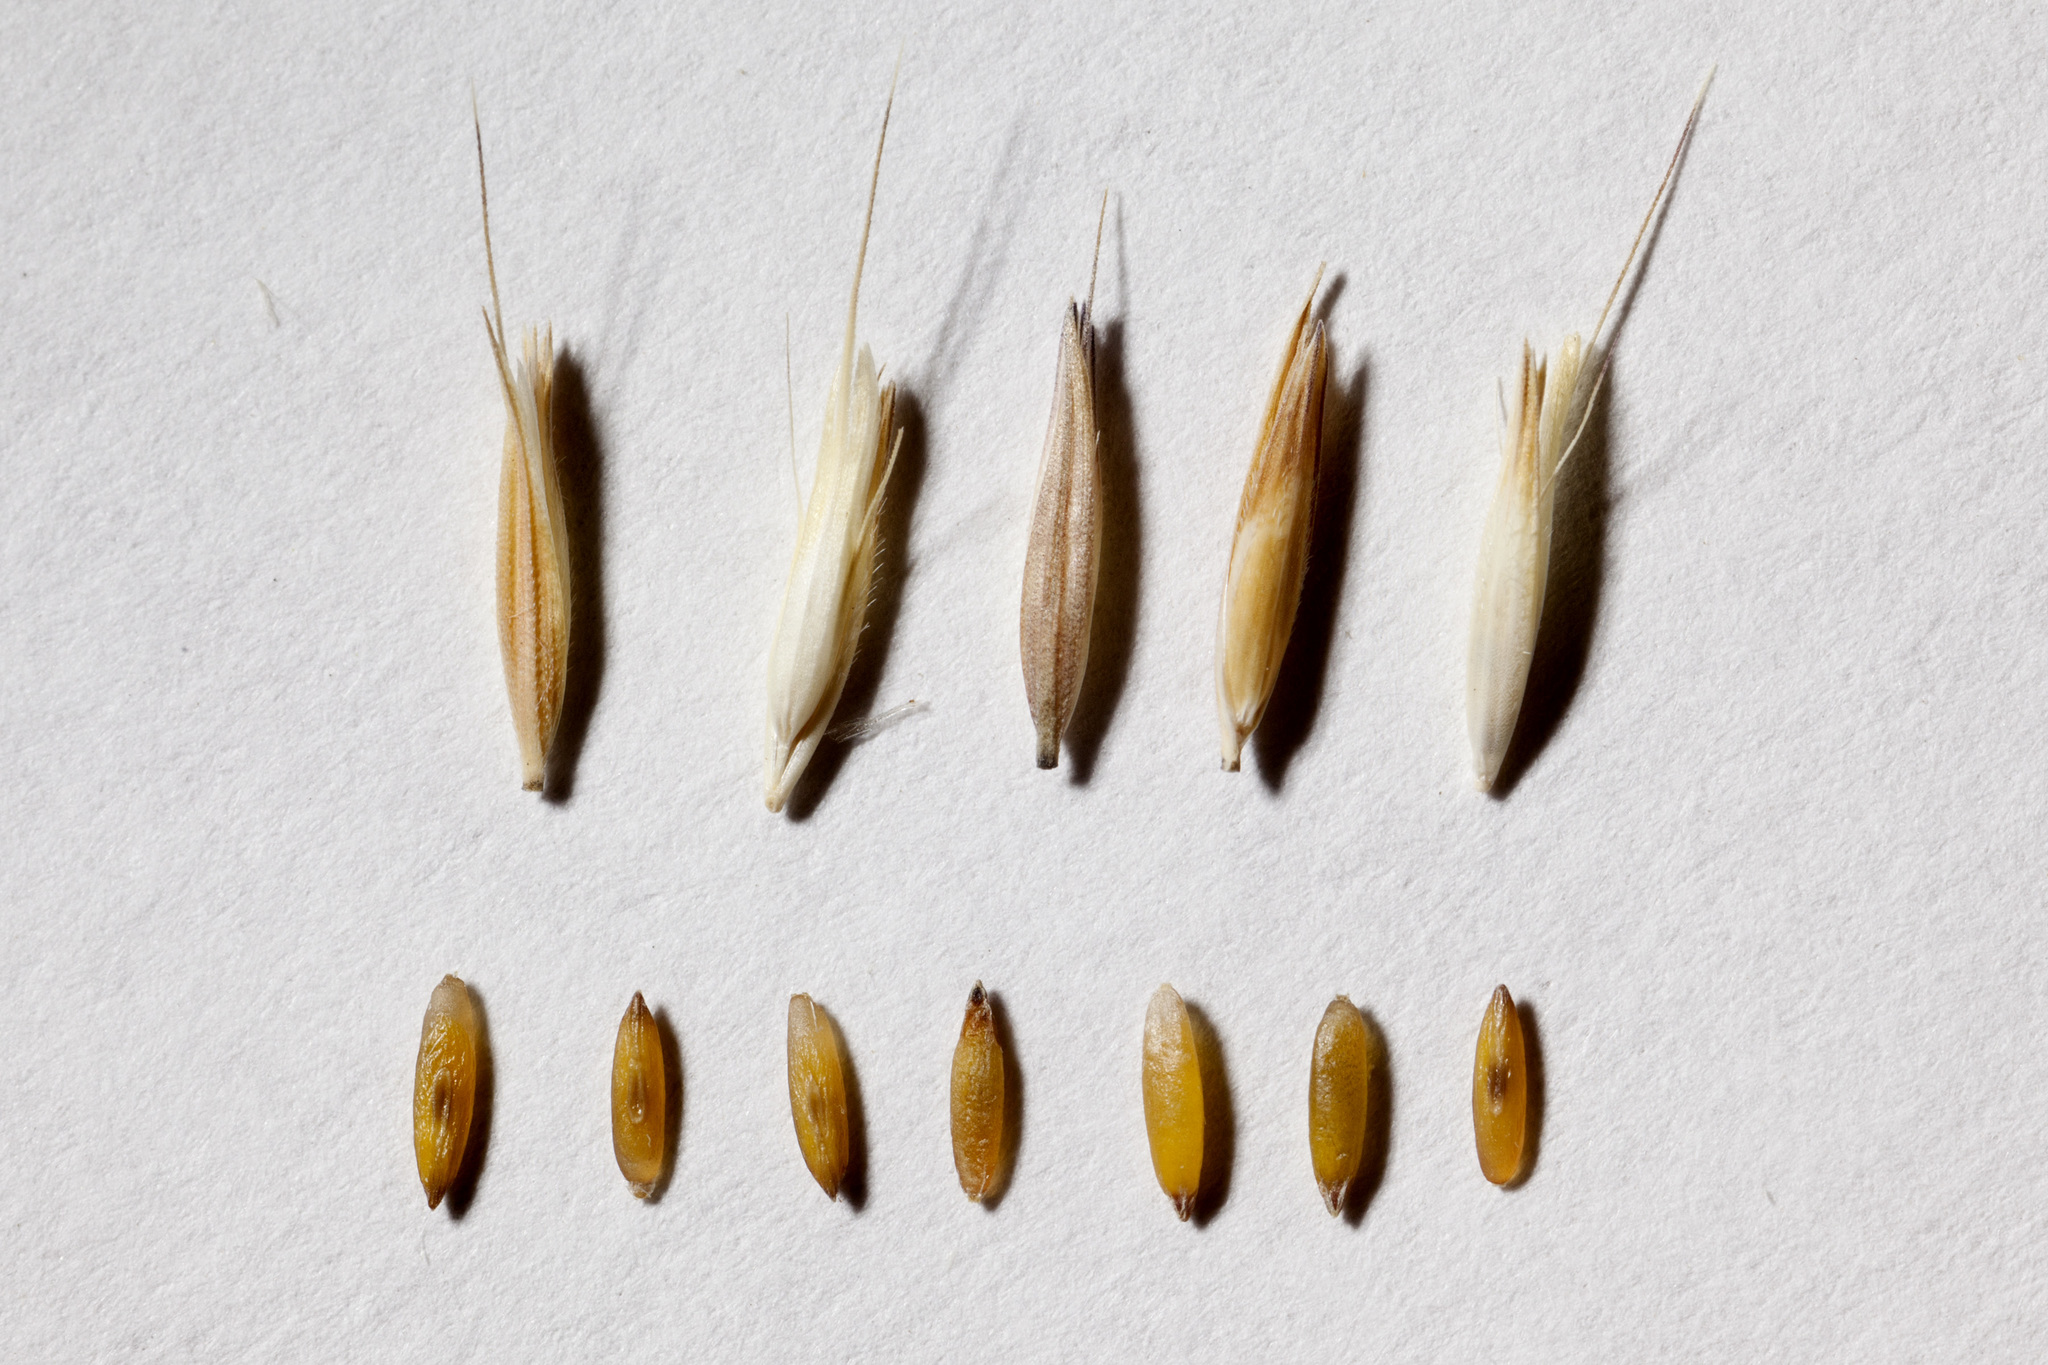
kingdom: Plantae
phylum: Tracheophyta
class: Liliopsida
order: Poales
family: Poaceae
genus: Bouteloua
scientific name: Bouteloua curtipendula
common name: Side-oats grama
